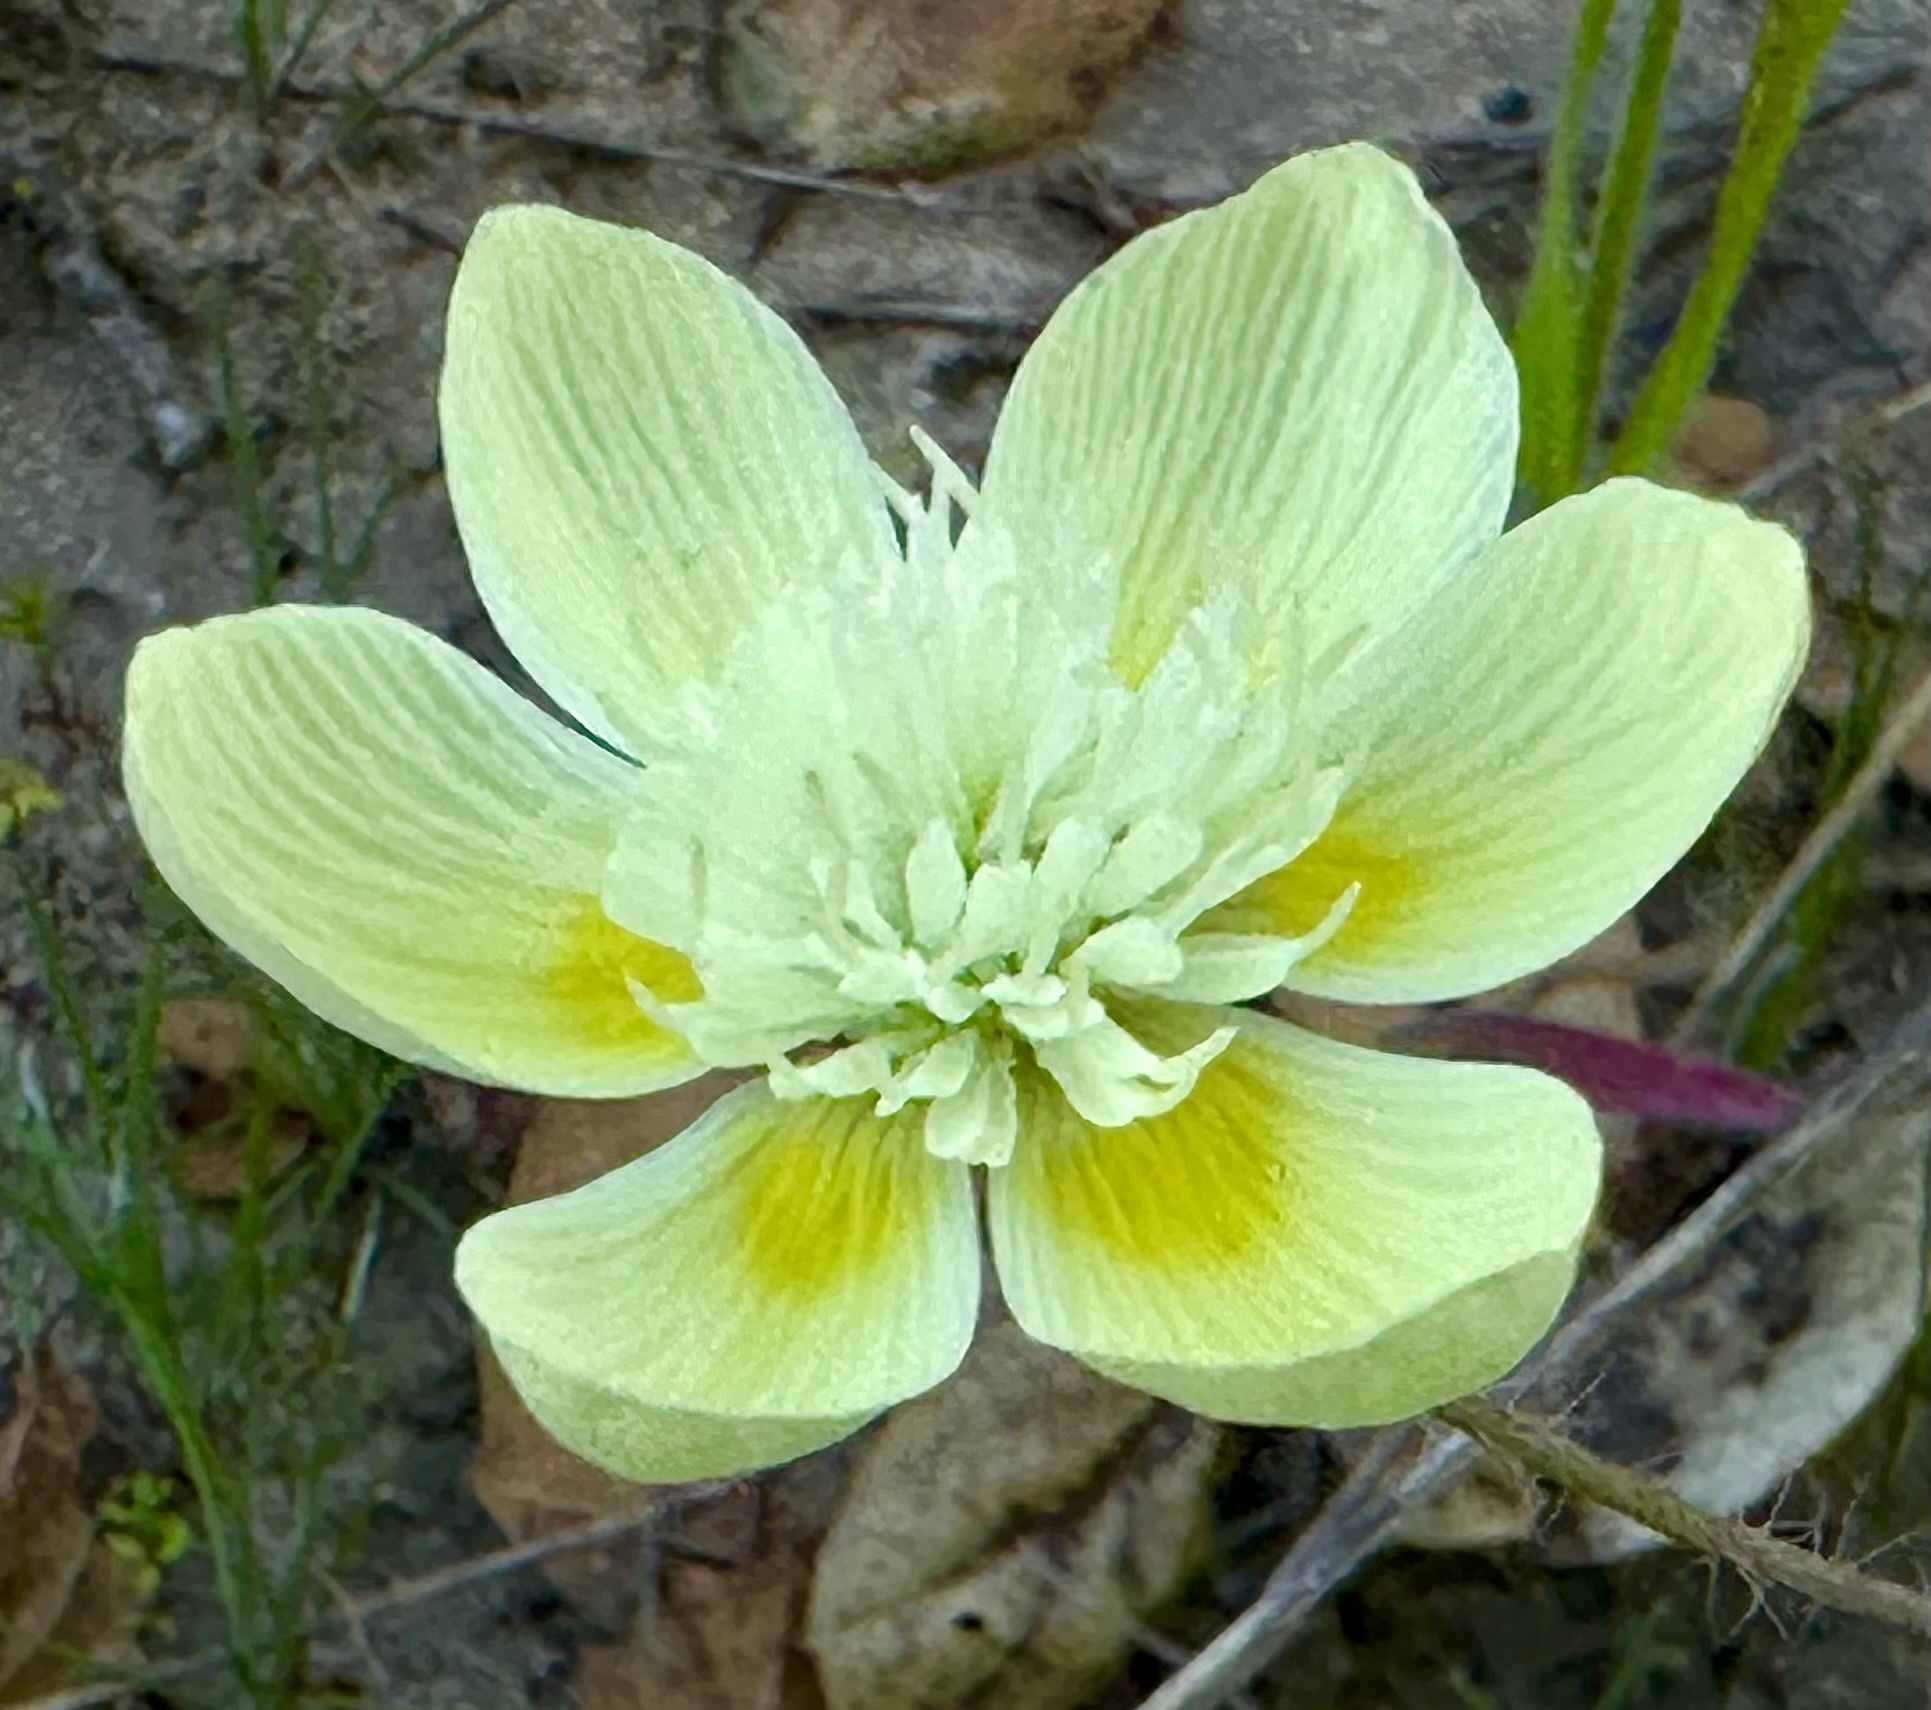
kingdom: Plantae
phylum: Tracheophyta
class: Magnoliopsida
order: Ranunculales
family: Papaveraceae
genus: Platystemon
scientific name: Platystemon californicus
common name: Cream-cups
